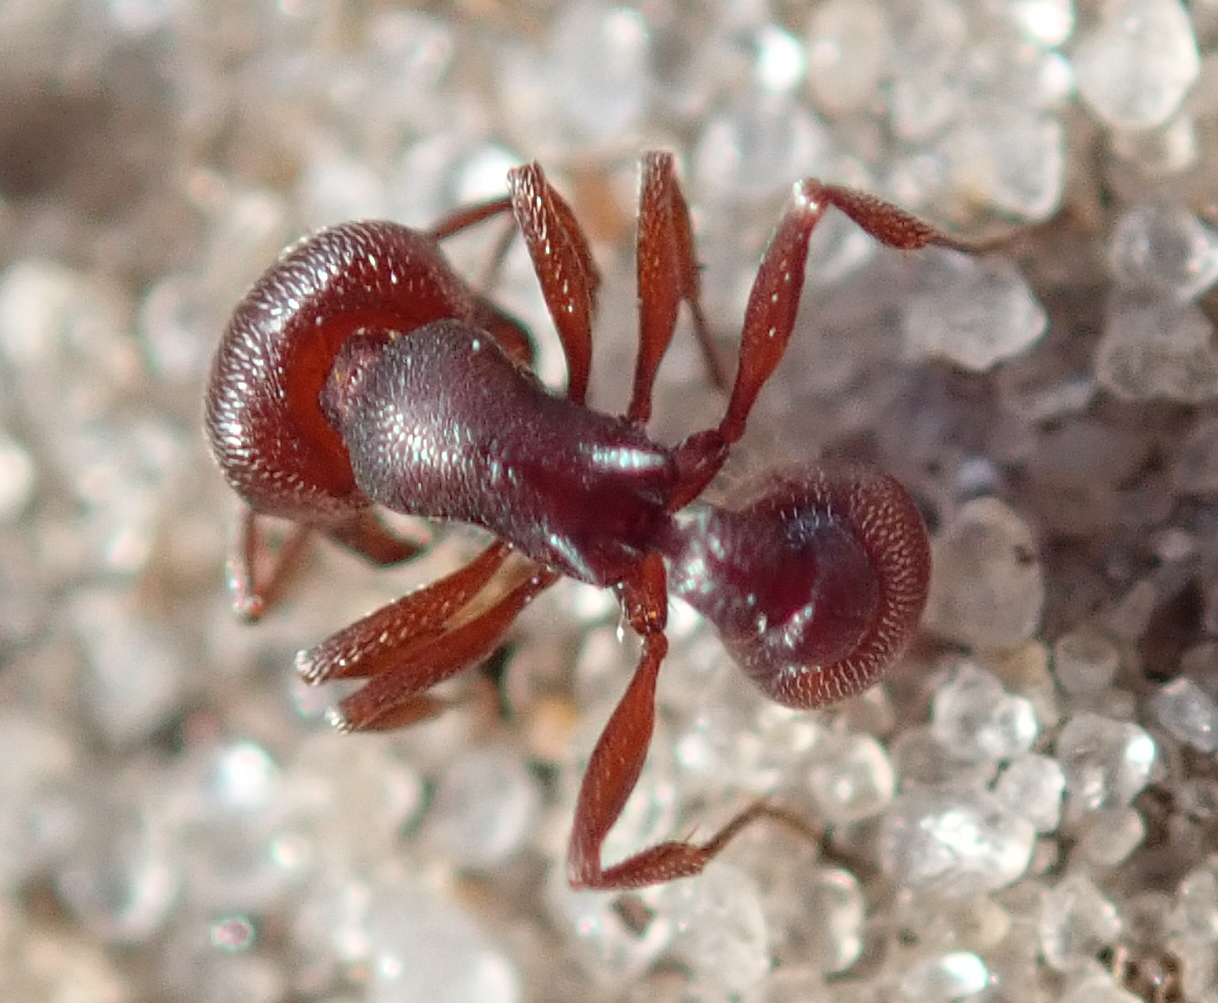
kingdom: Animalia
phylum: Arthropoda
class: Insecta
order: Hymenoptera
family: Formicidae
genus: Tetramorium
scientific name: Tetramorium setuliferum
